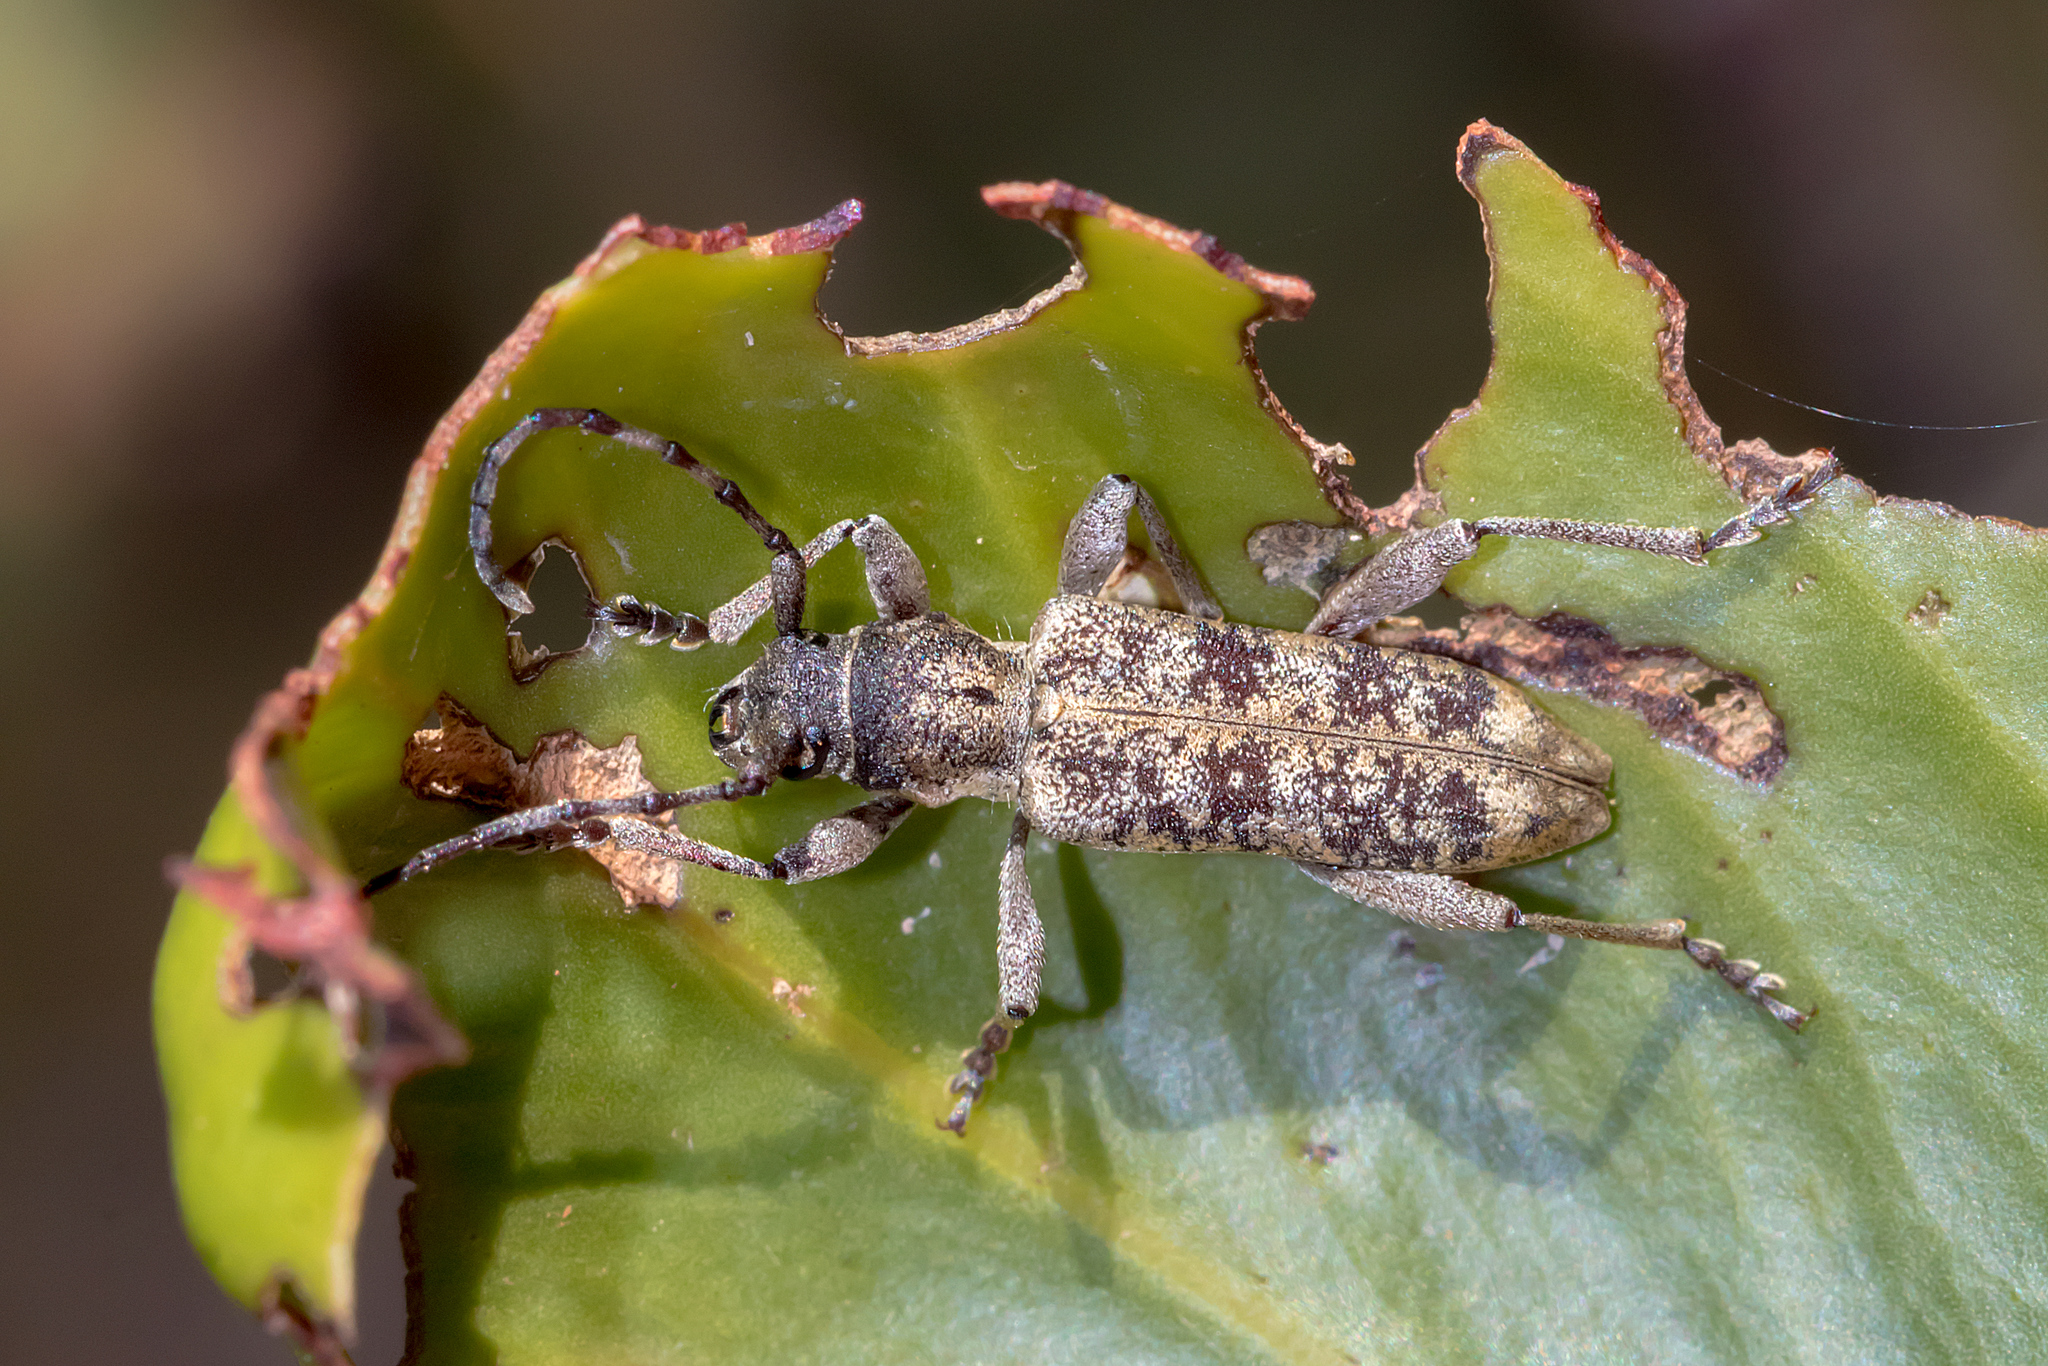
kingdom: Animalia
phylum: Arthropoda
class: Insecta
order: Coleoptera
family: Cerambycidae
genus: Pempsamacra
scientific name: Pempsamacra dispersa
